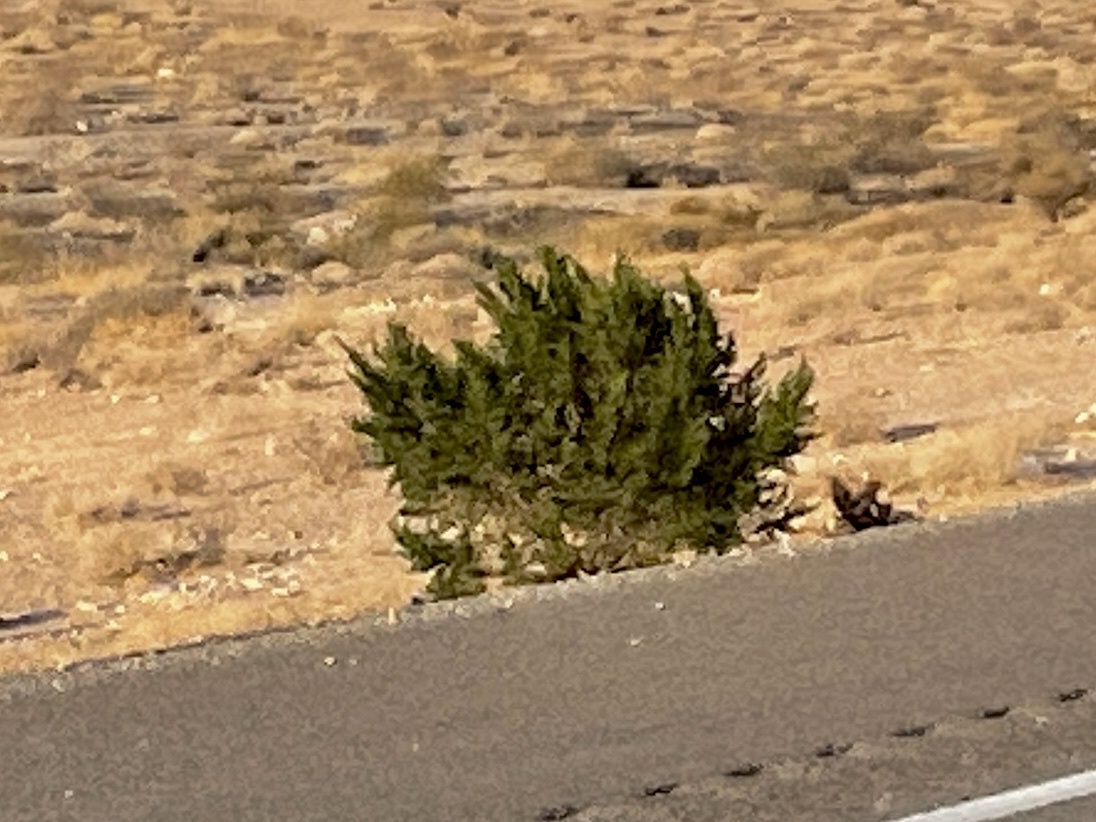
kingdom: Plantae
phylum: Tracheophyta
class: Magnoliopsida
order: Zygophyllales
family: Zygophyllaceae
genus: Larrea
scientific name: Larrea tridentata
